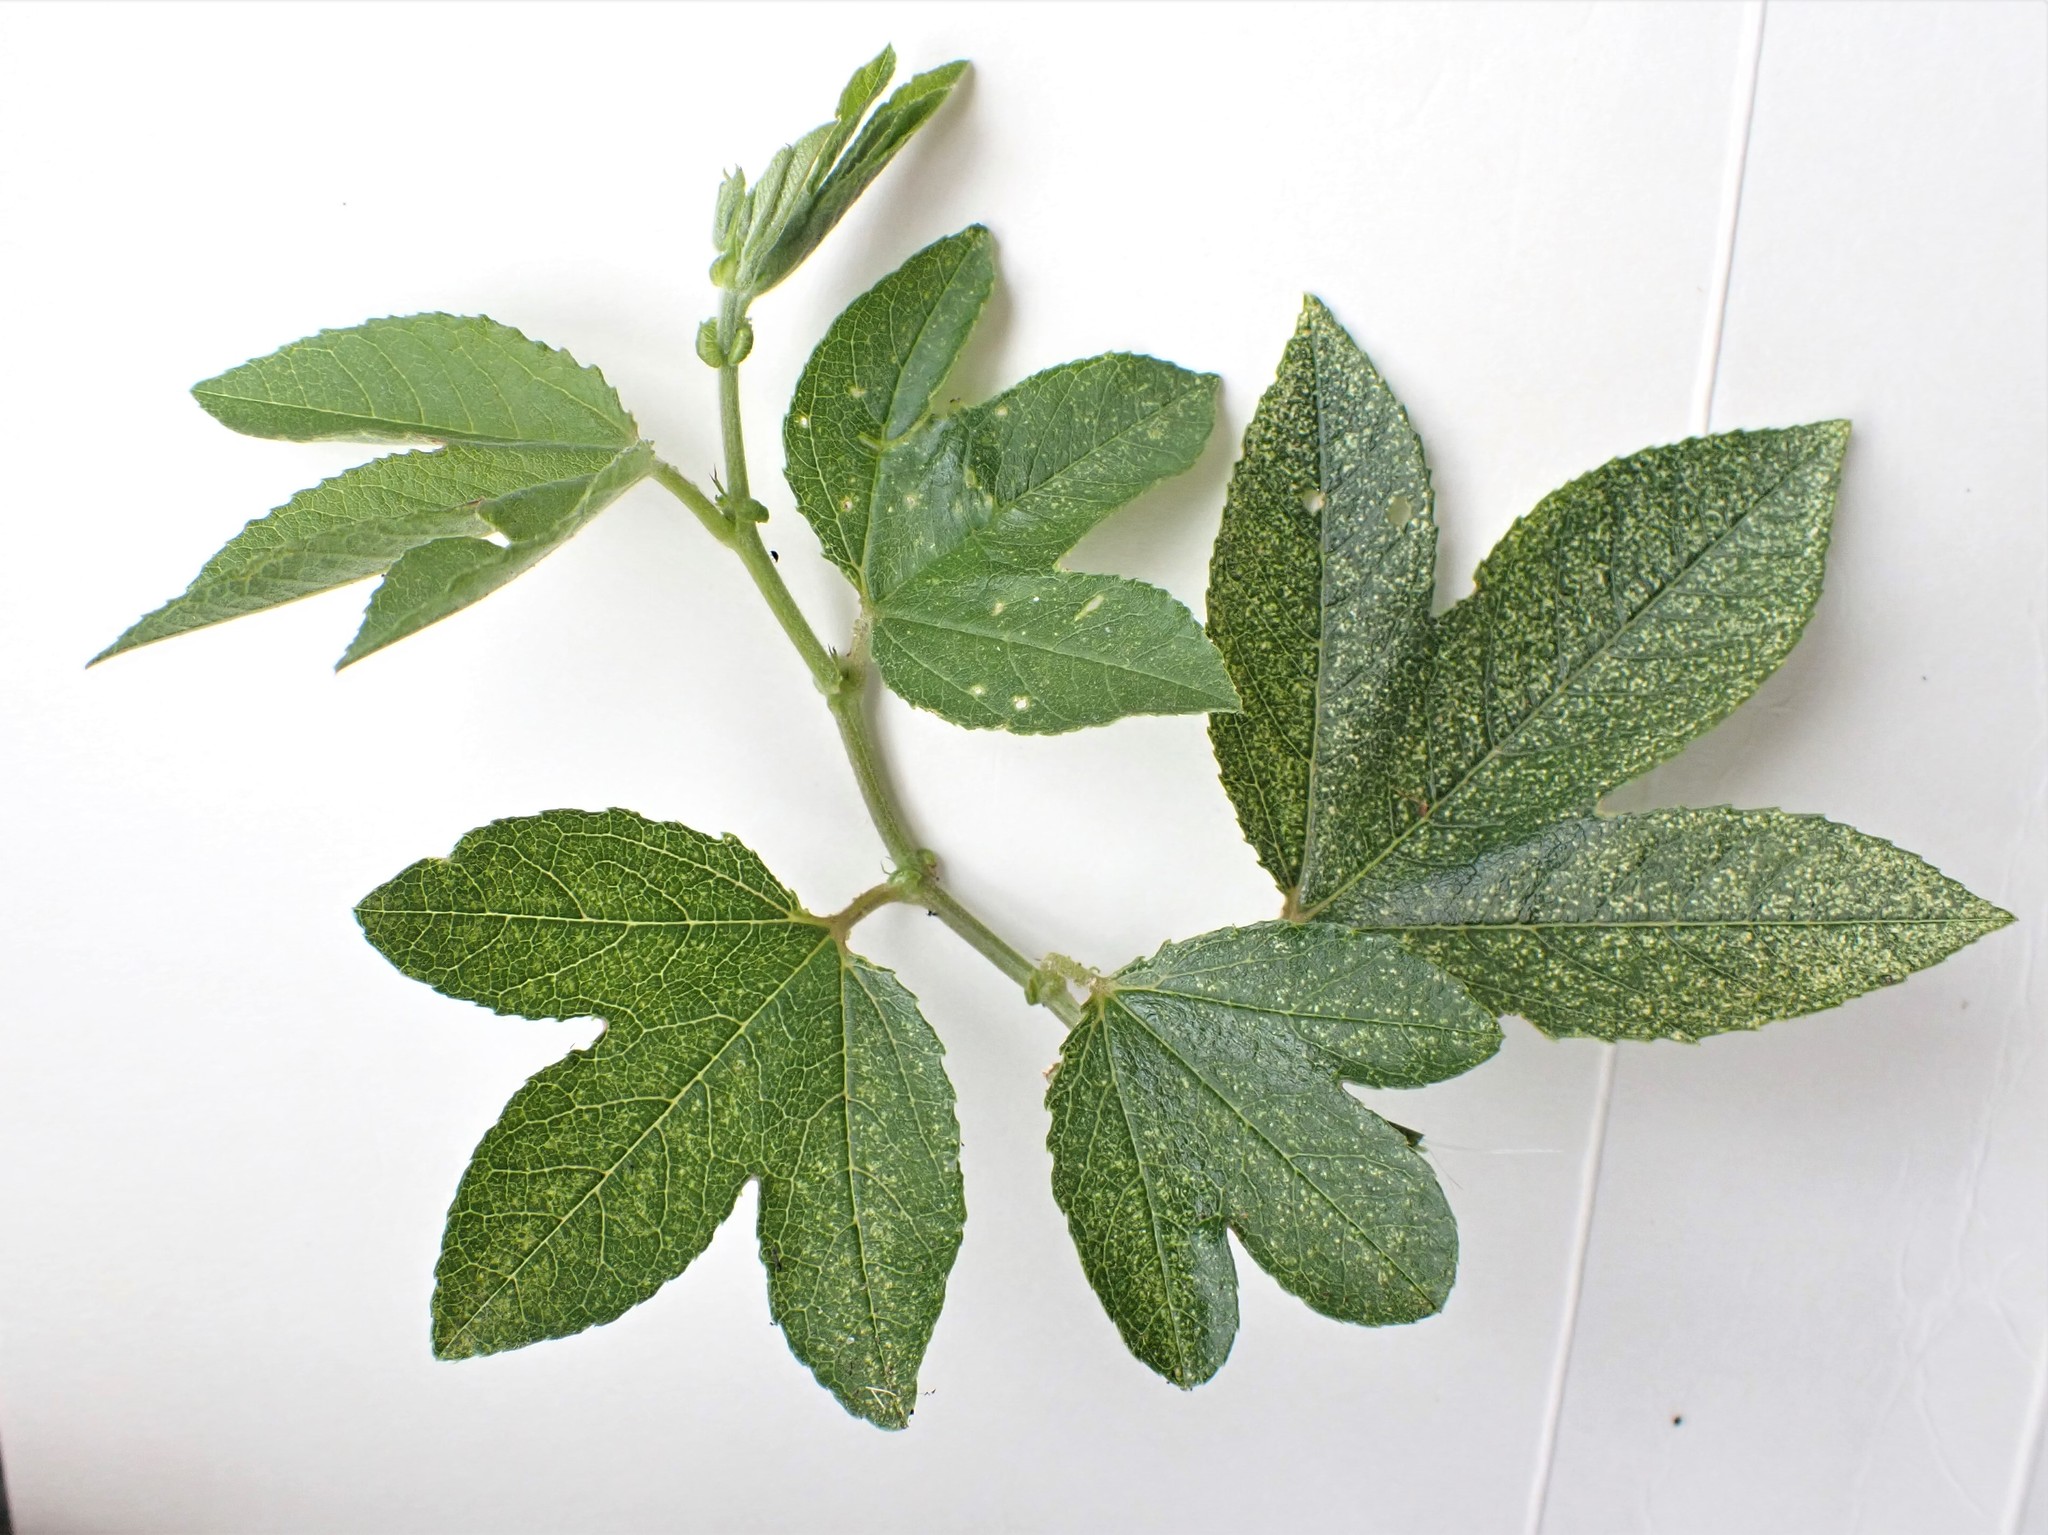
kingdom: Plantae
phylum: Tracheophyta
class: Magnoliopsida
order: Malpighiales
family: Passifloraceae
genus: Passiflora
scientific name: Passiflora tripartita
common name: Banana poka
